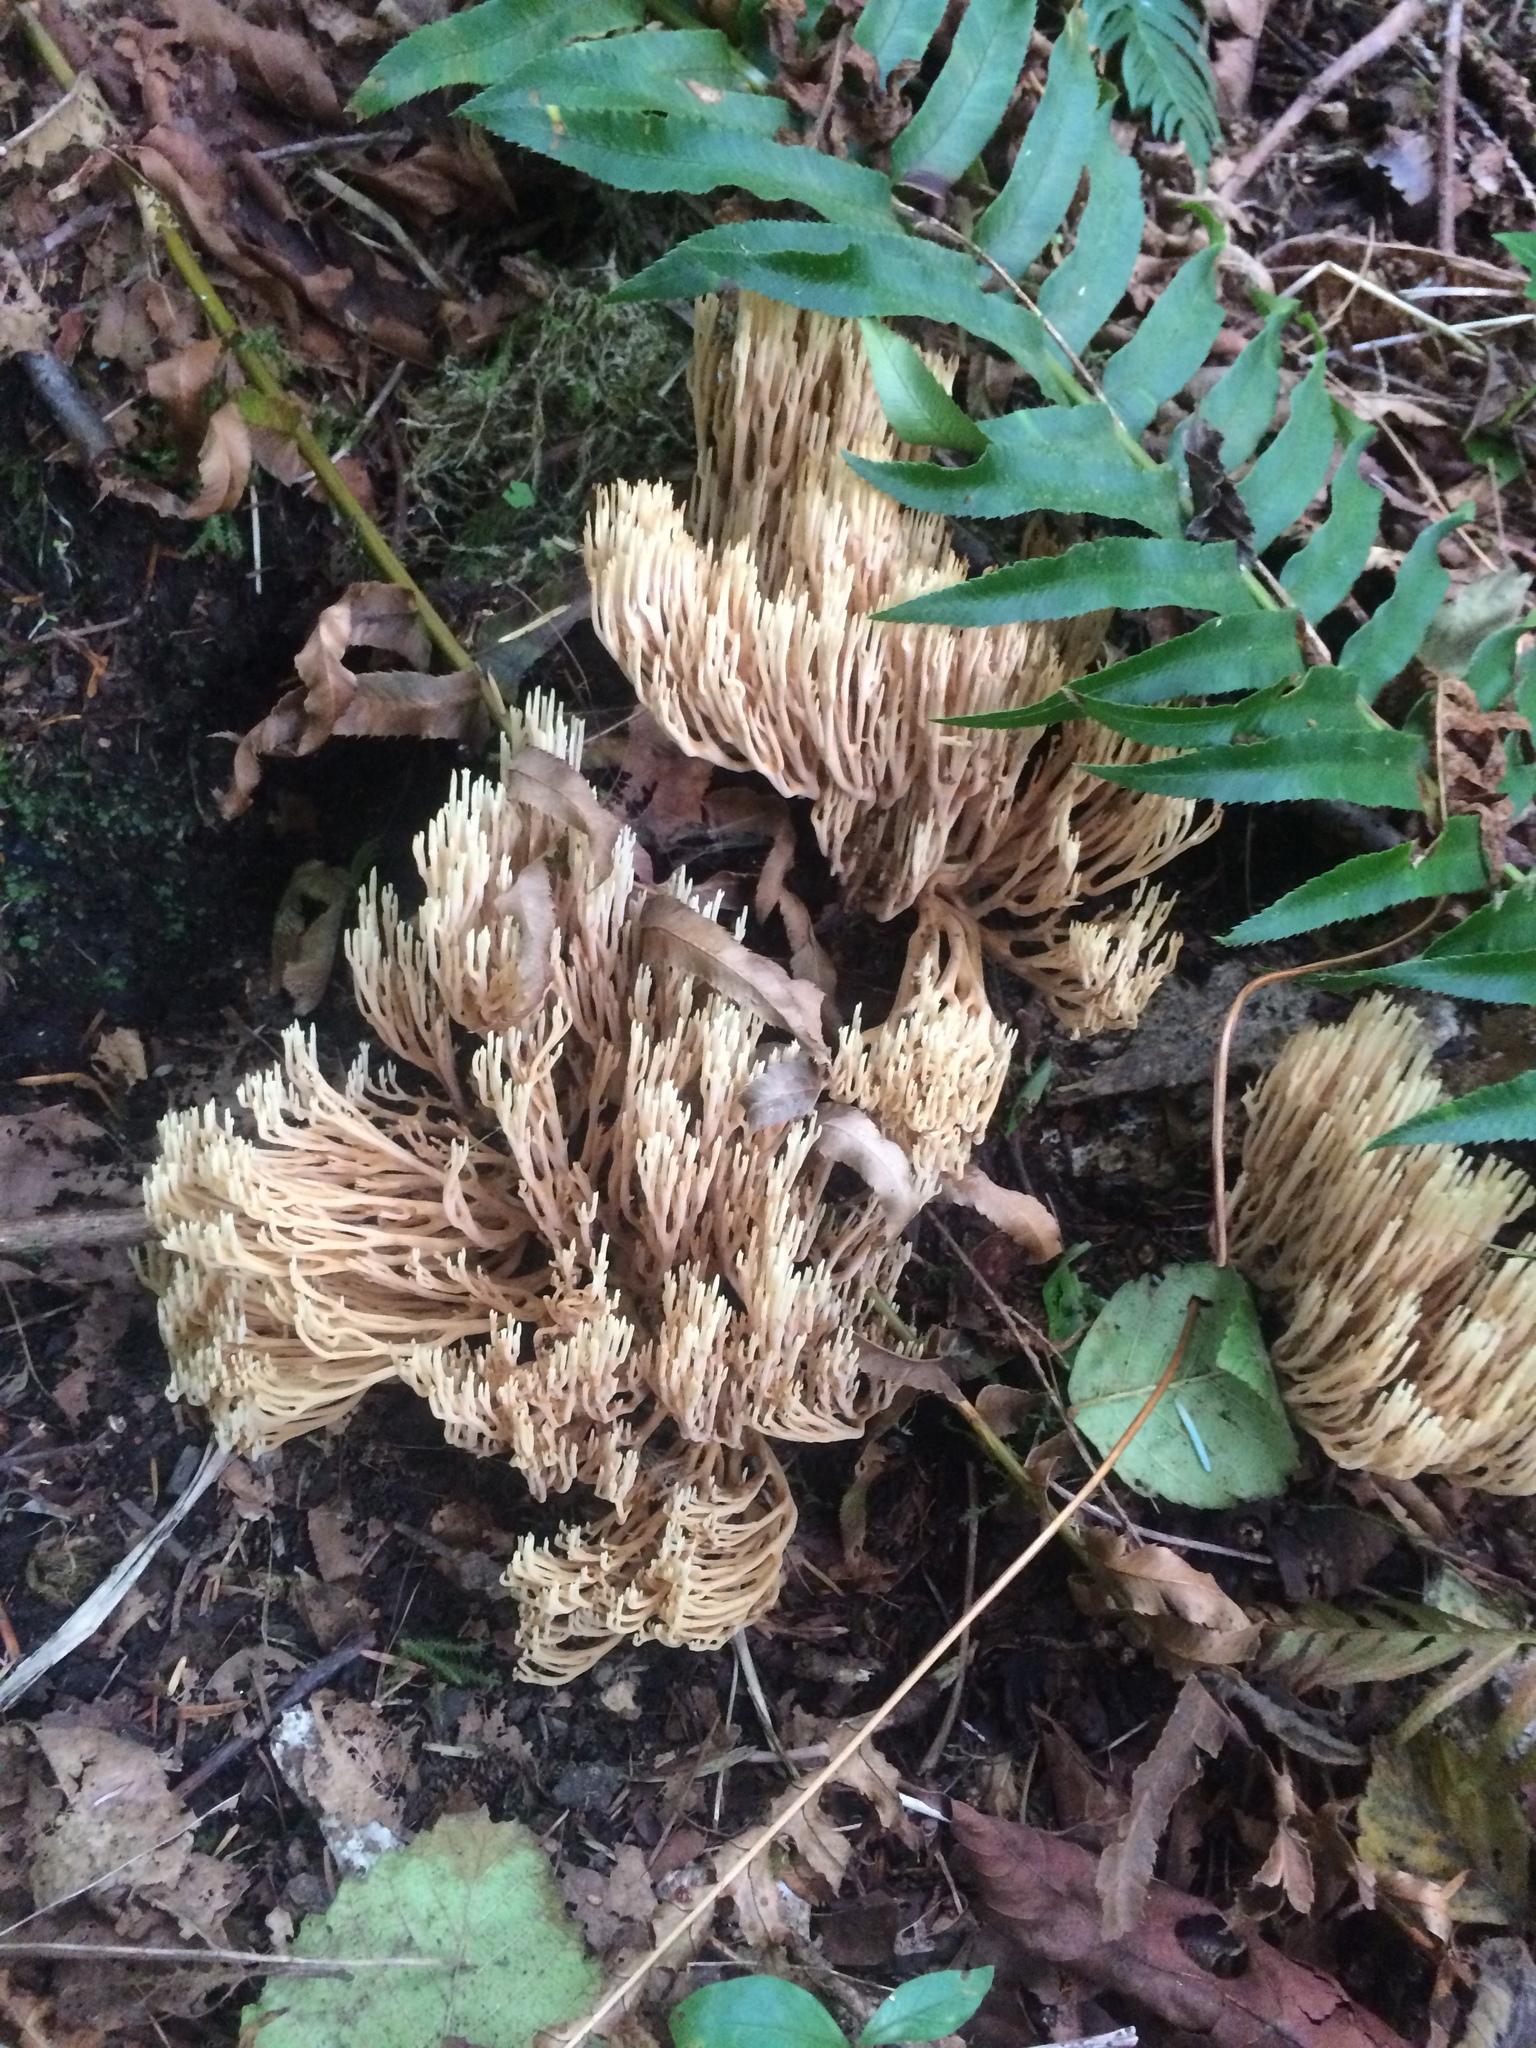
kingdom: Fungi
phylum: Basidiomycota
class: Agaricomycetes
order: Gomphales
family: Gomphaceae
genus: Ramaria
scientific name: Ramaria stricta
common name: Upright coral
